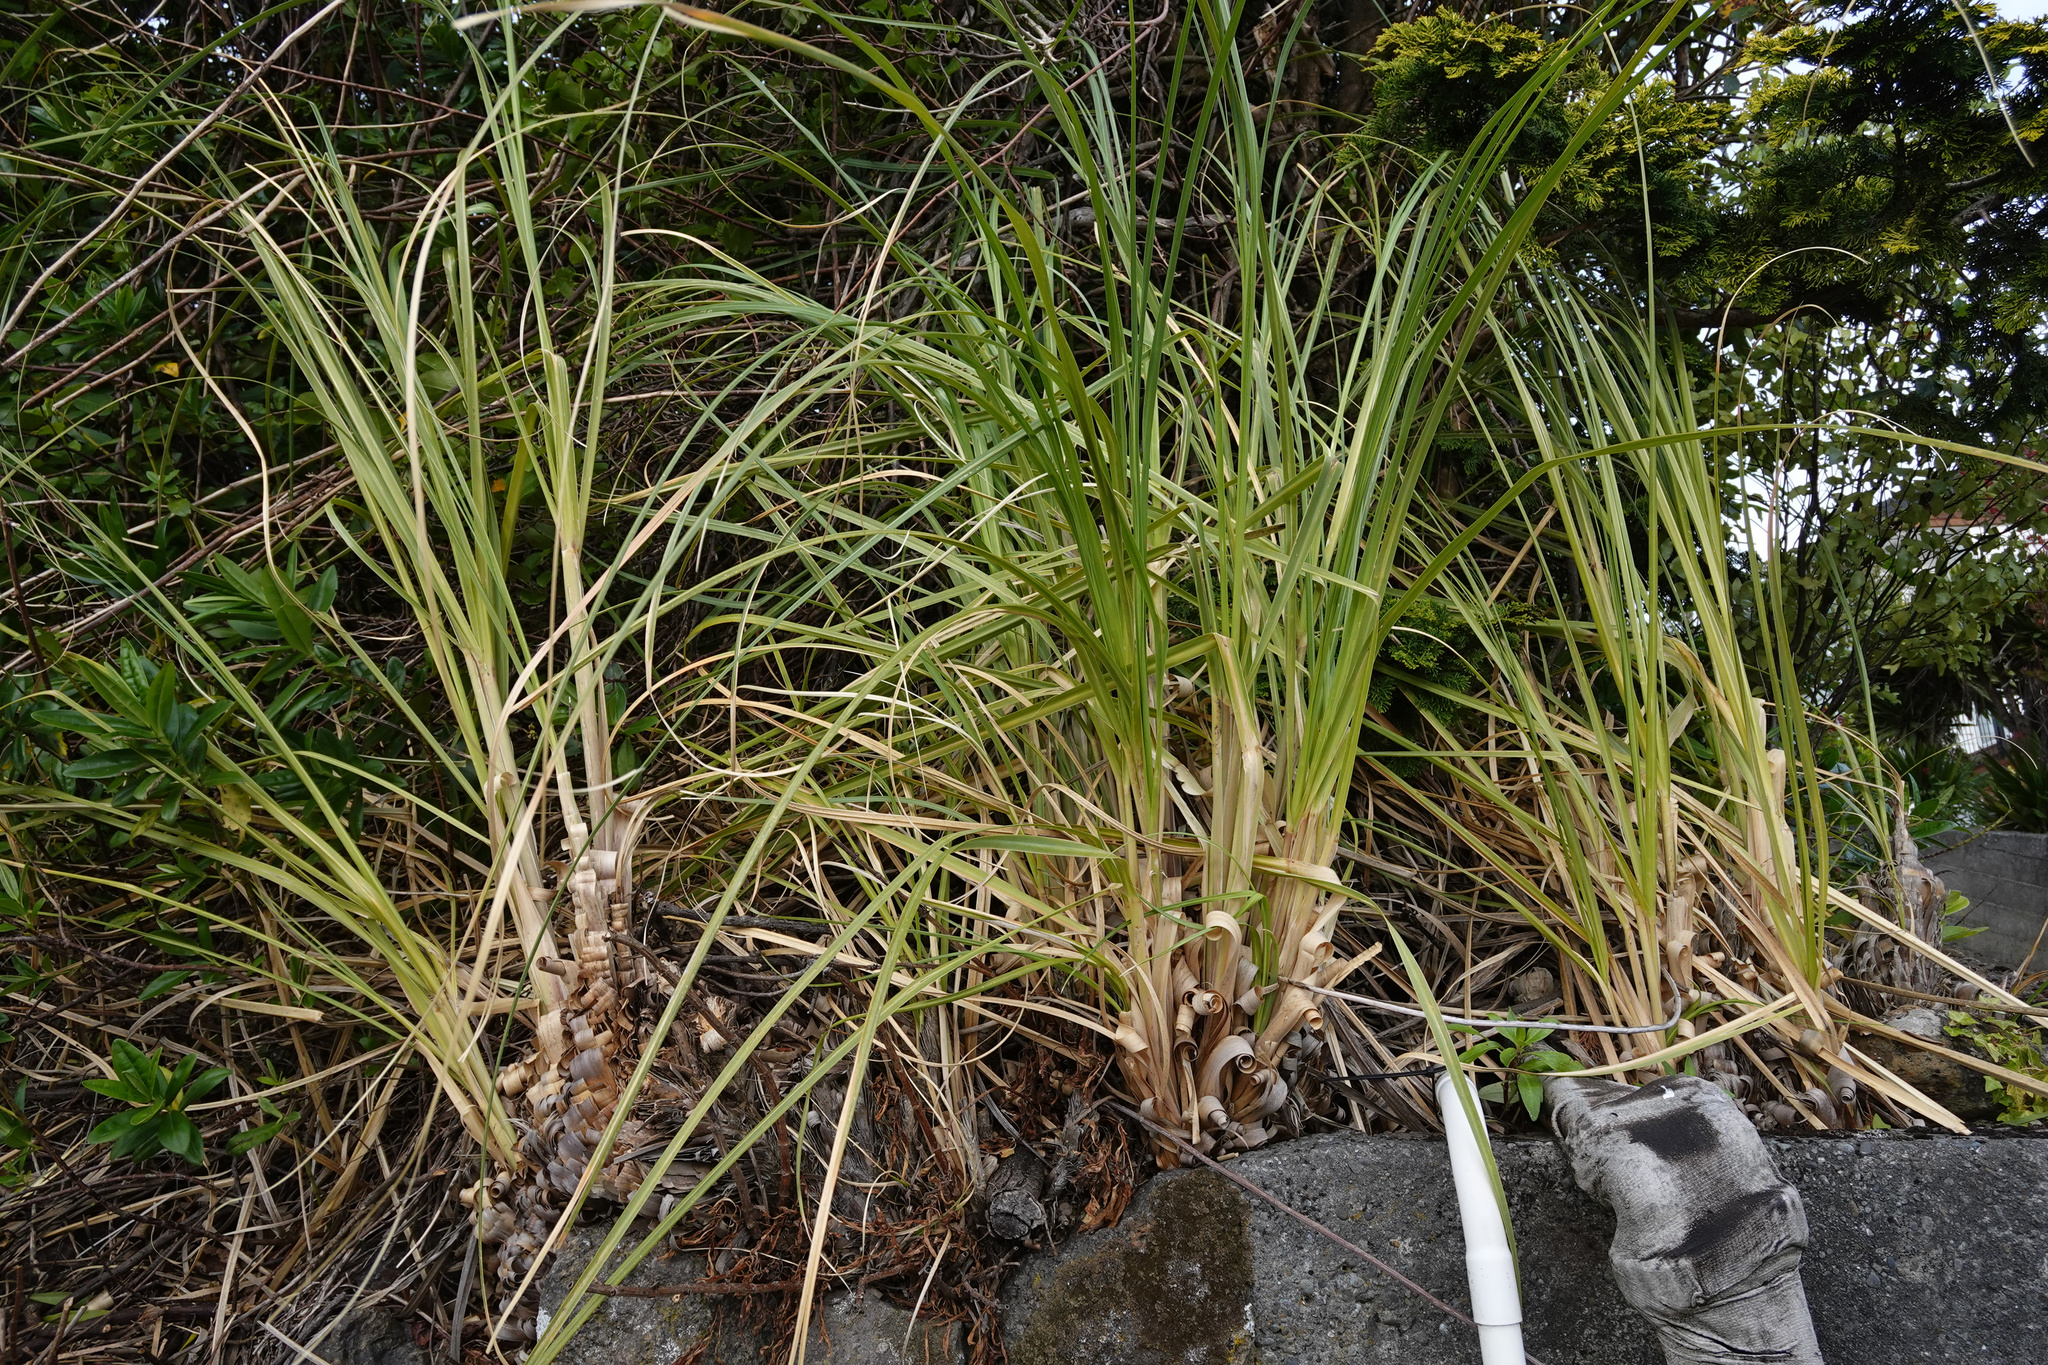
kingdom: Plantae
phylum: Tracheophyta
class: Liliopsida
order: Poales
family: Poaceae
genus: Cortaderia
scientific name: Cortaderia selloana
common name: Uruguayan pampas grass
